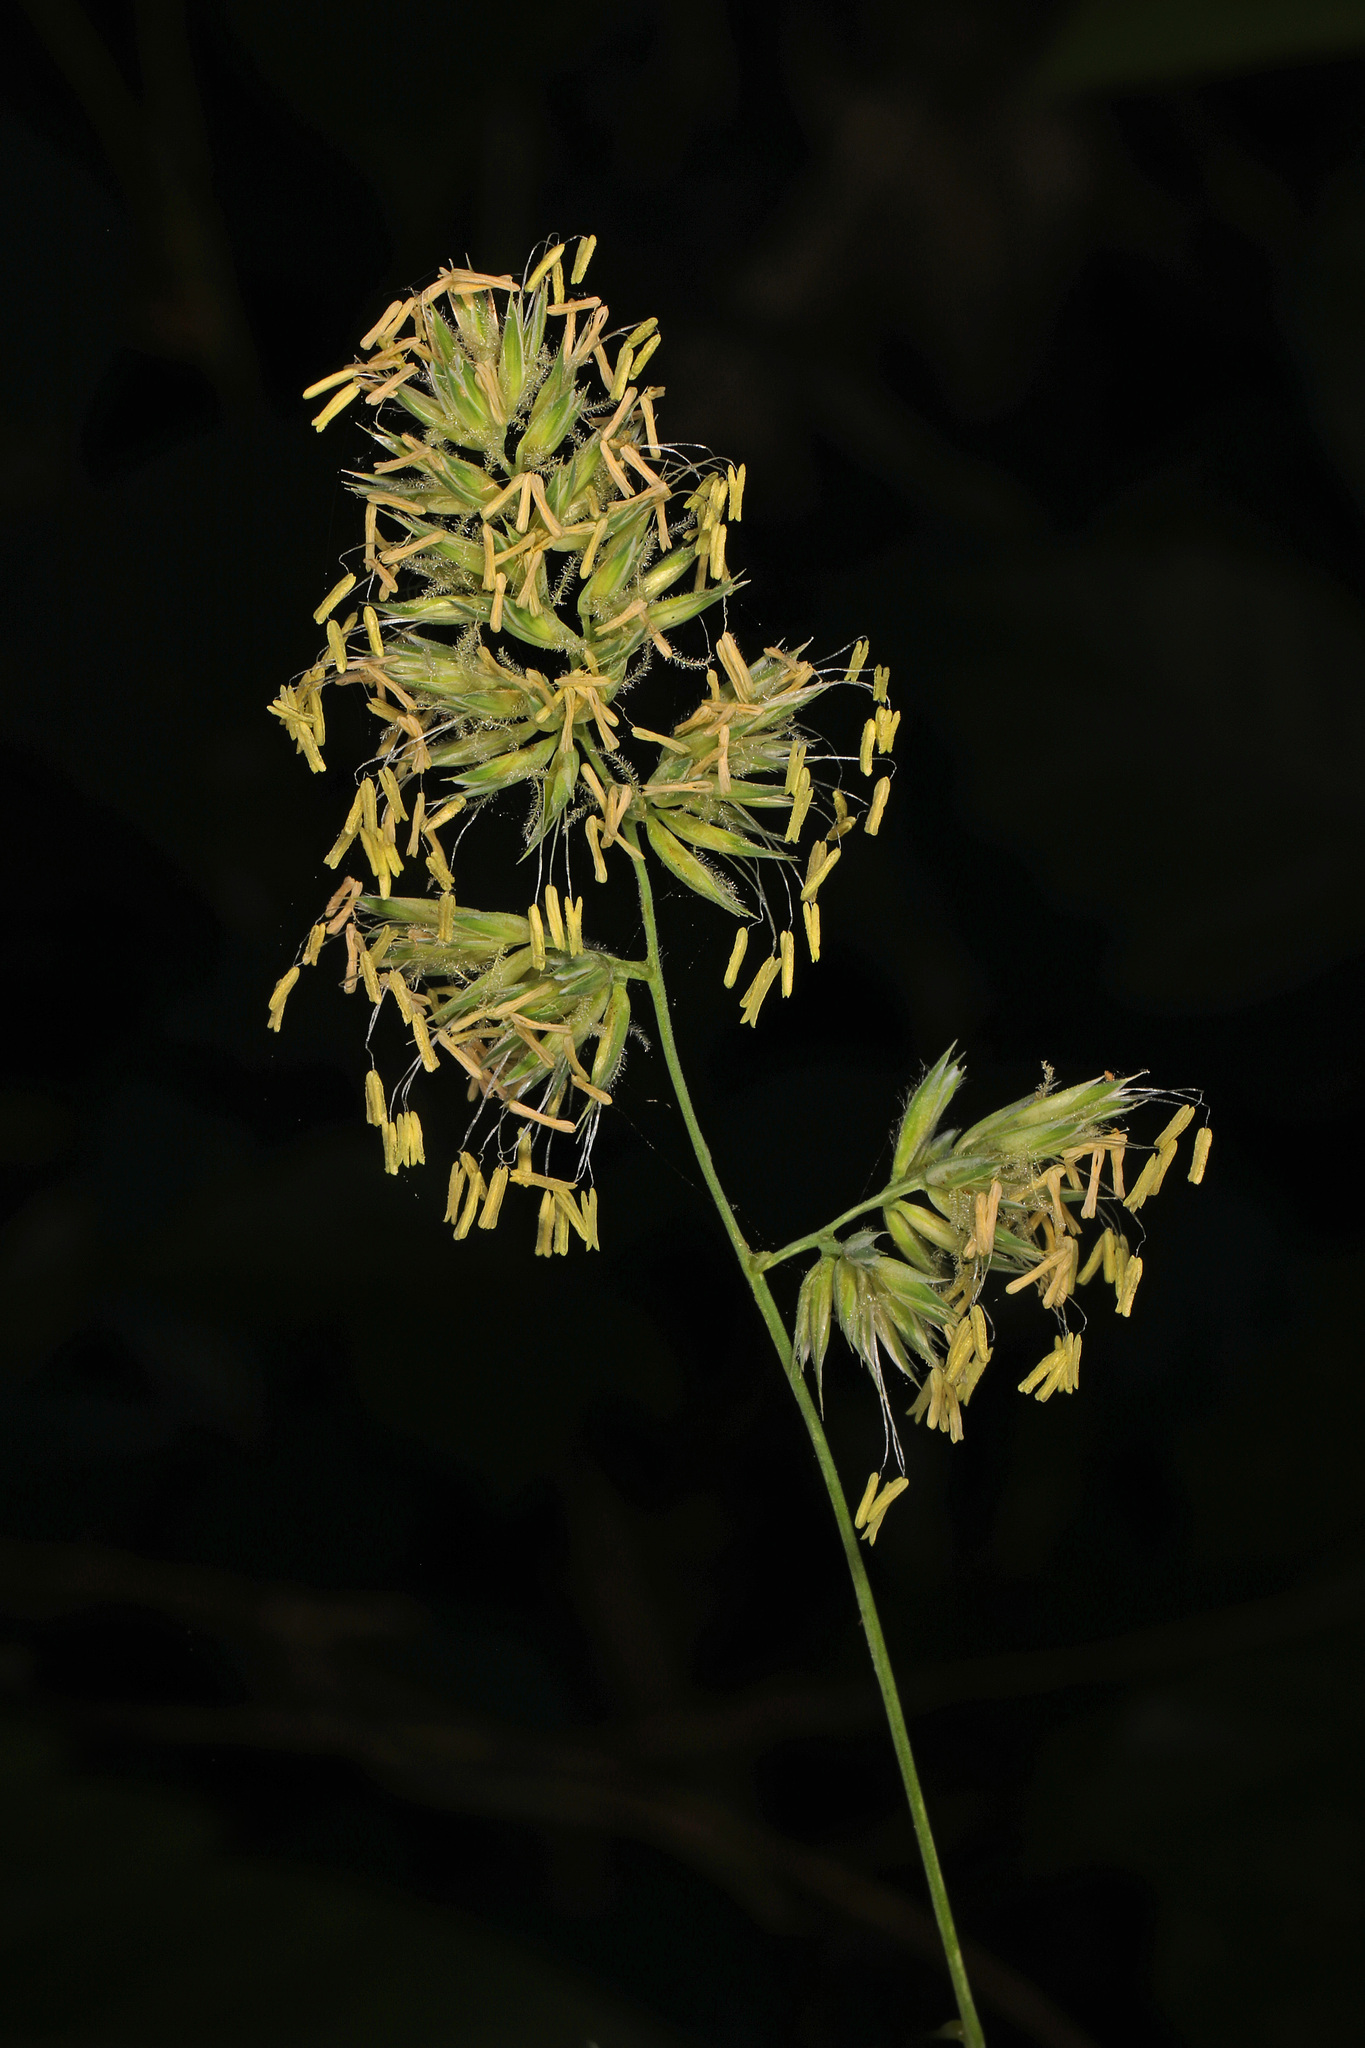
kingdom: Plantae
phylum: Tracheophyta
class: Liliopsida
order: Poales
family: Poaceae
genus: Dactylis
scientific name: Dactylis glomerata
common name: Orchardgrass
